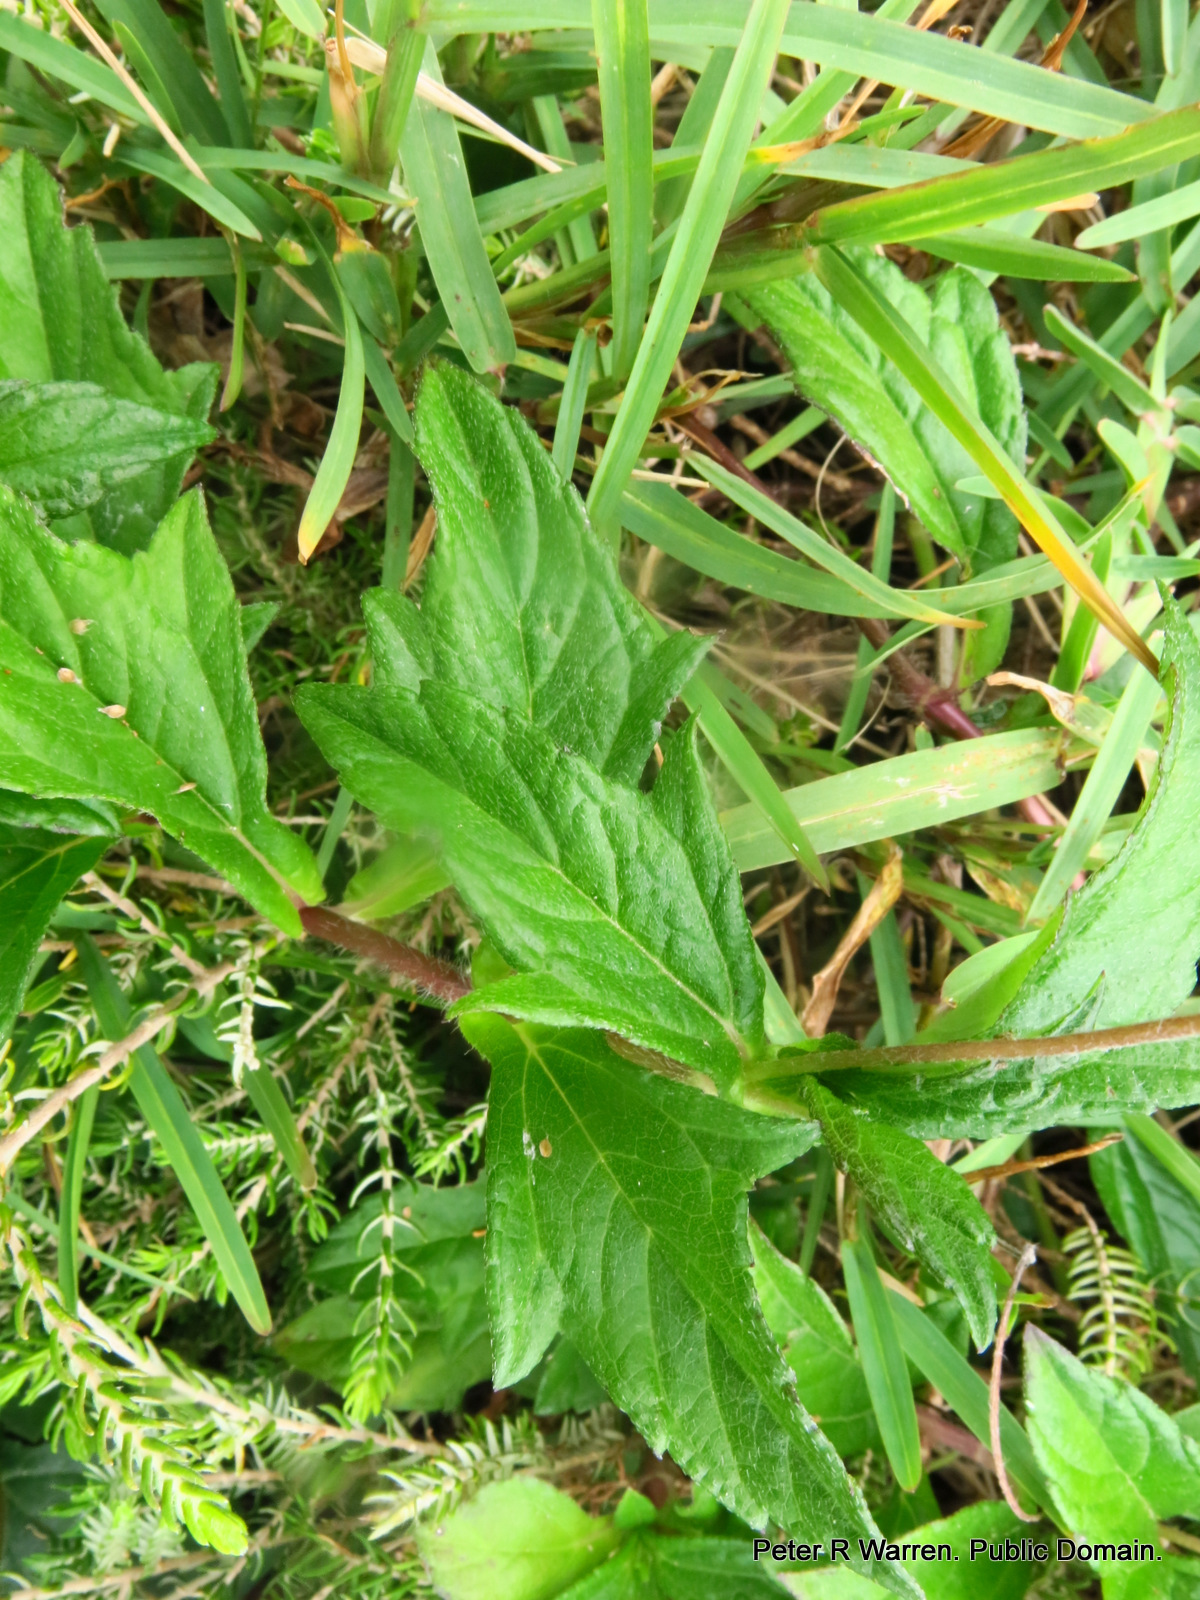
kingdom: Plantae
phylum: Tracheophyta
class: Magnoliopsida
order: Asterales
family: Asteraceae
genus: Sphagneticola
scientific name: Sphagneticola trilobata
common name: Bay biscayne creeping-oxeye
